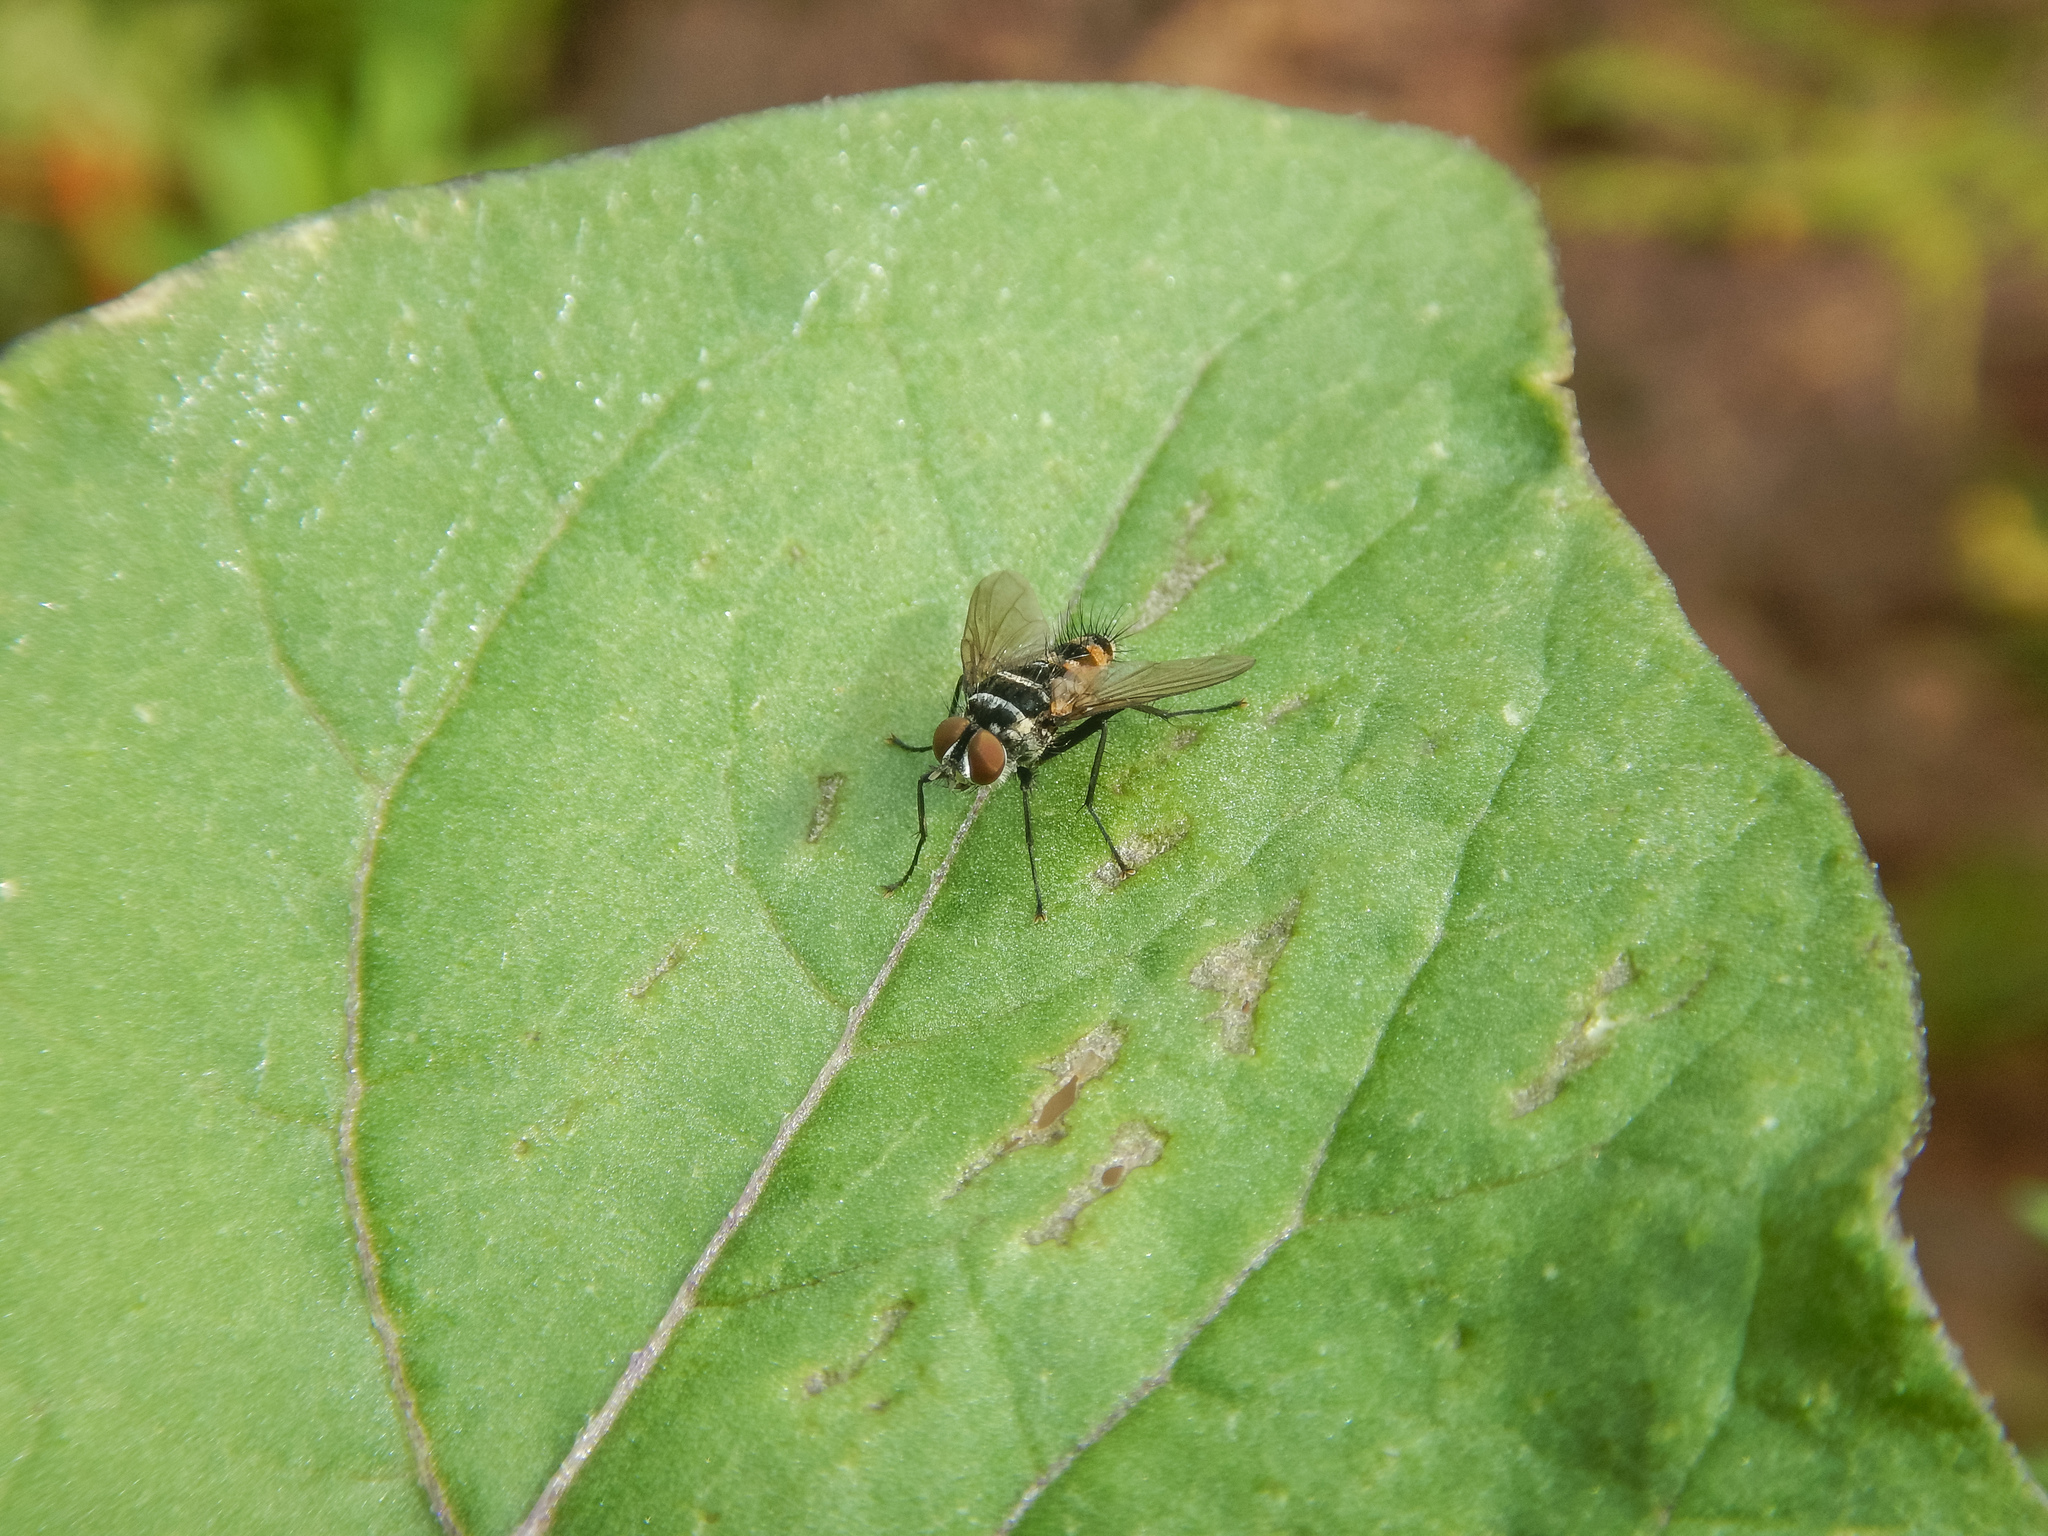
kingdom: Animalia
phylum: Arthropoda
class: Insecta
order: Diptera
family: Tachinidae
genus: Trigonospila
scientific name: Trigonospila brevifacies
